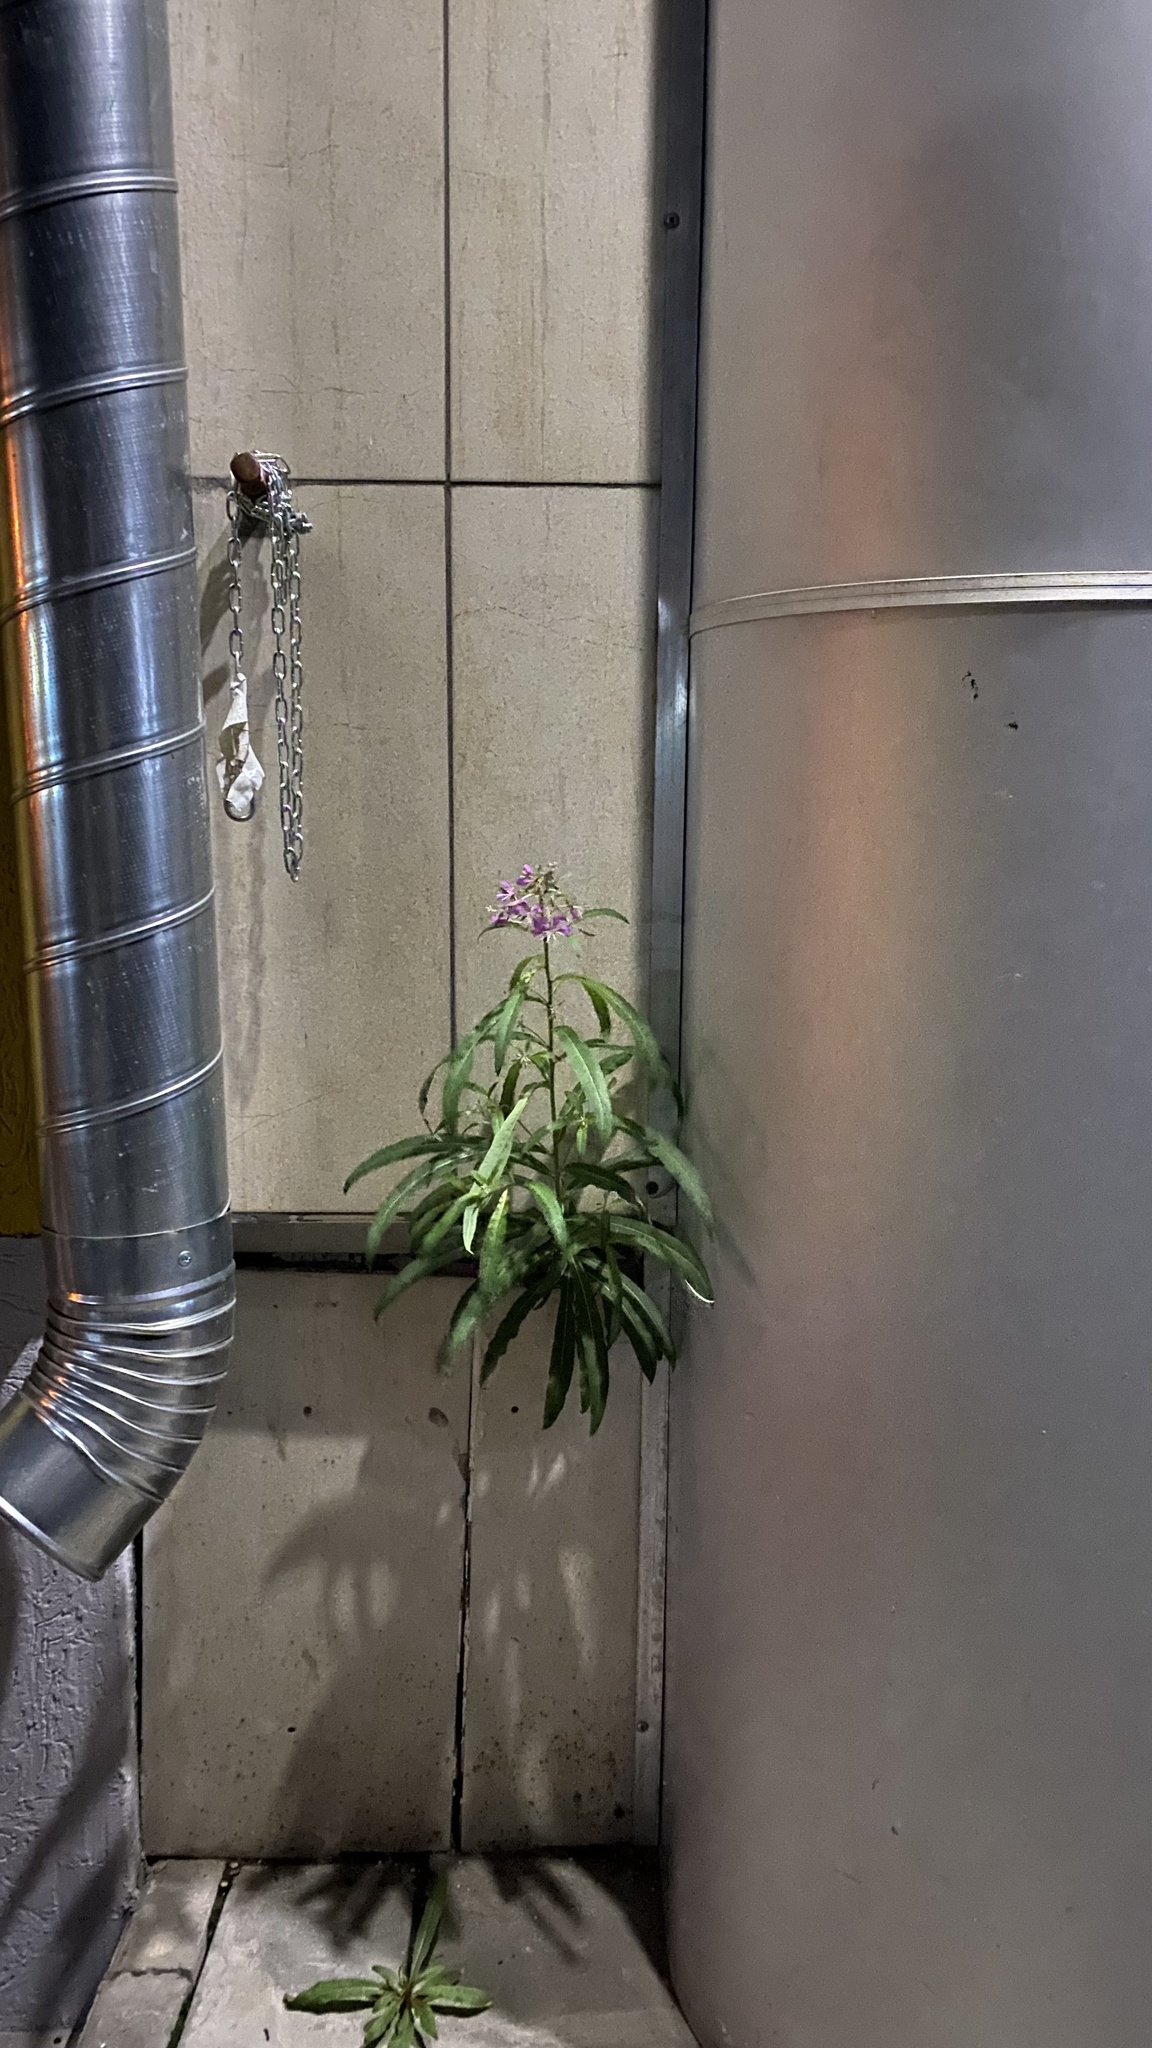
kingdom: Plantae
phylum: Tracheophyta
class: Magnoliopsida
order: Myrtales
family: Onagraceae
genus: Chamaenerion
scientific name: Chamaenerion angustifolium
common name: Fireweed
